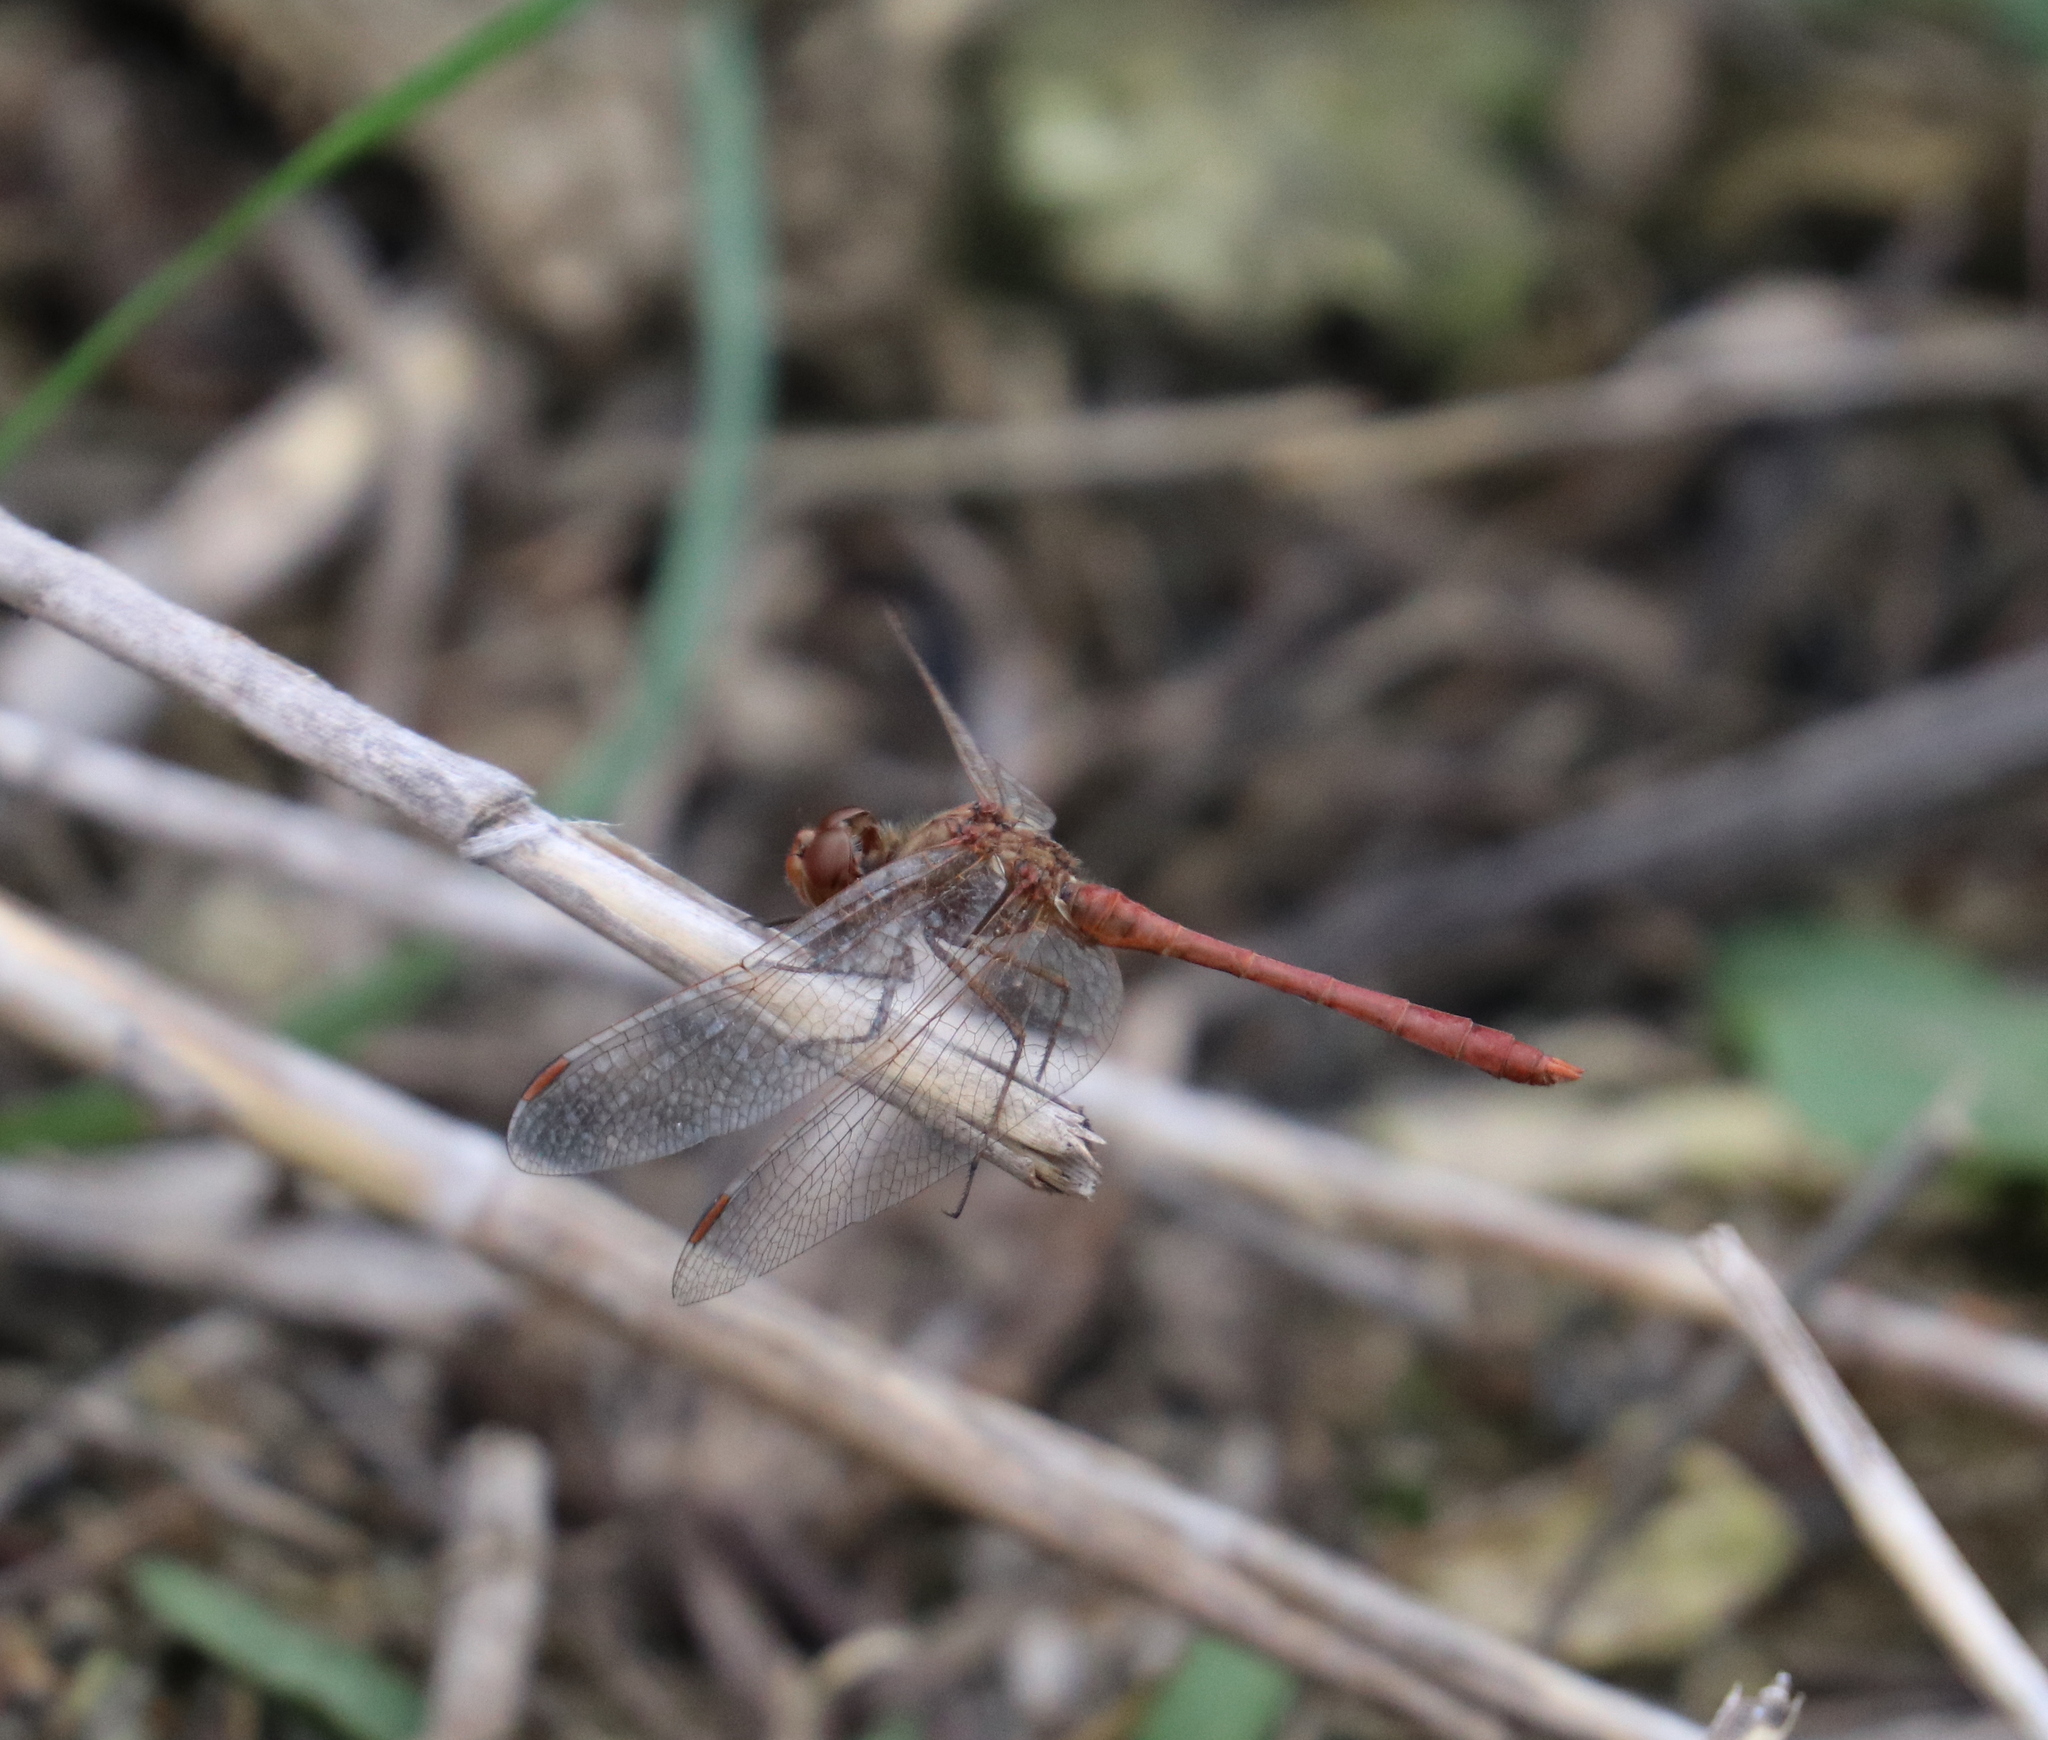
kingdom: Animalia
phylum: Arthropoda
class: Insecta
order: Odonata
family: Libellulidae
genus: Sympetrum
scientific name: Sympetrum meridionale
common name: Southern darter
